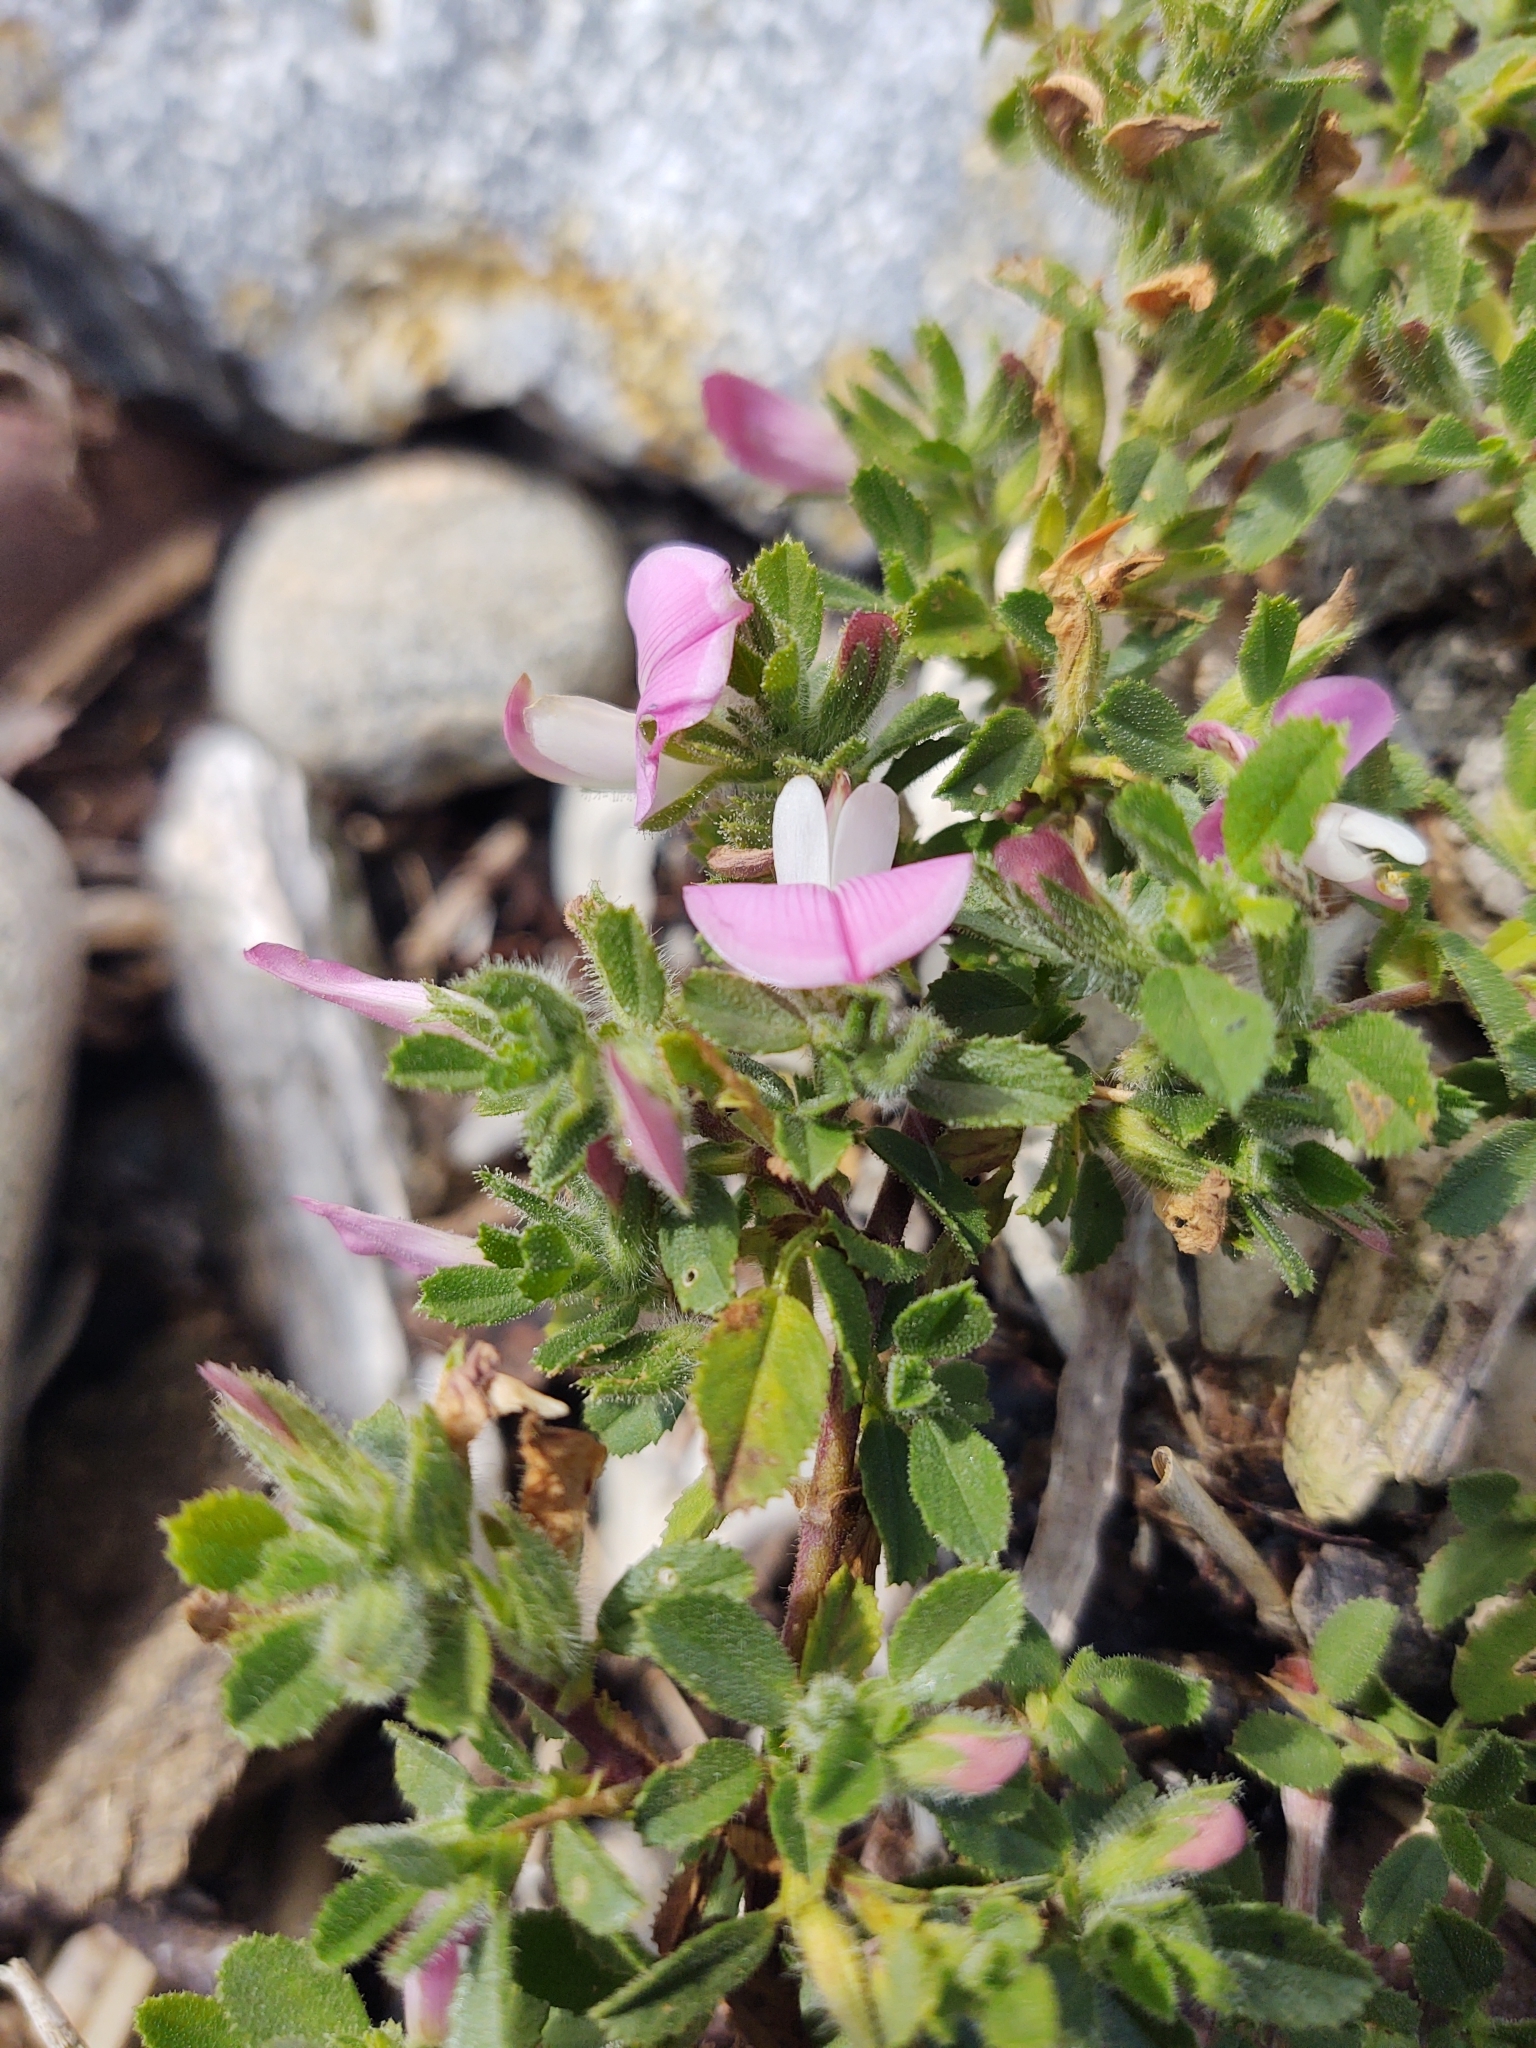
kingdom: Plantae
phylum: Tracheophyta
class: Magnoliopsida
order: Fabales
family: Fabaceae
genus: Ononis
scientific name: Ononis spinosa
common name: Spiny restharrow
